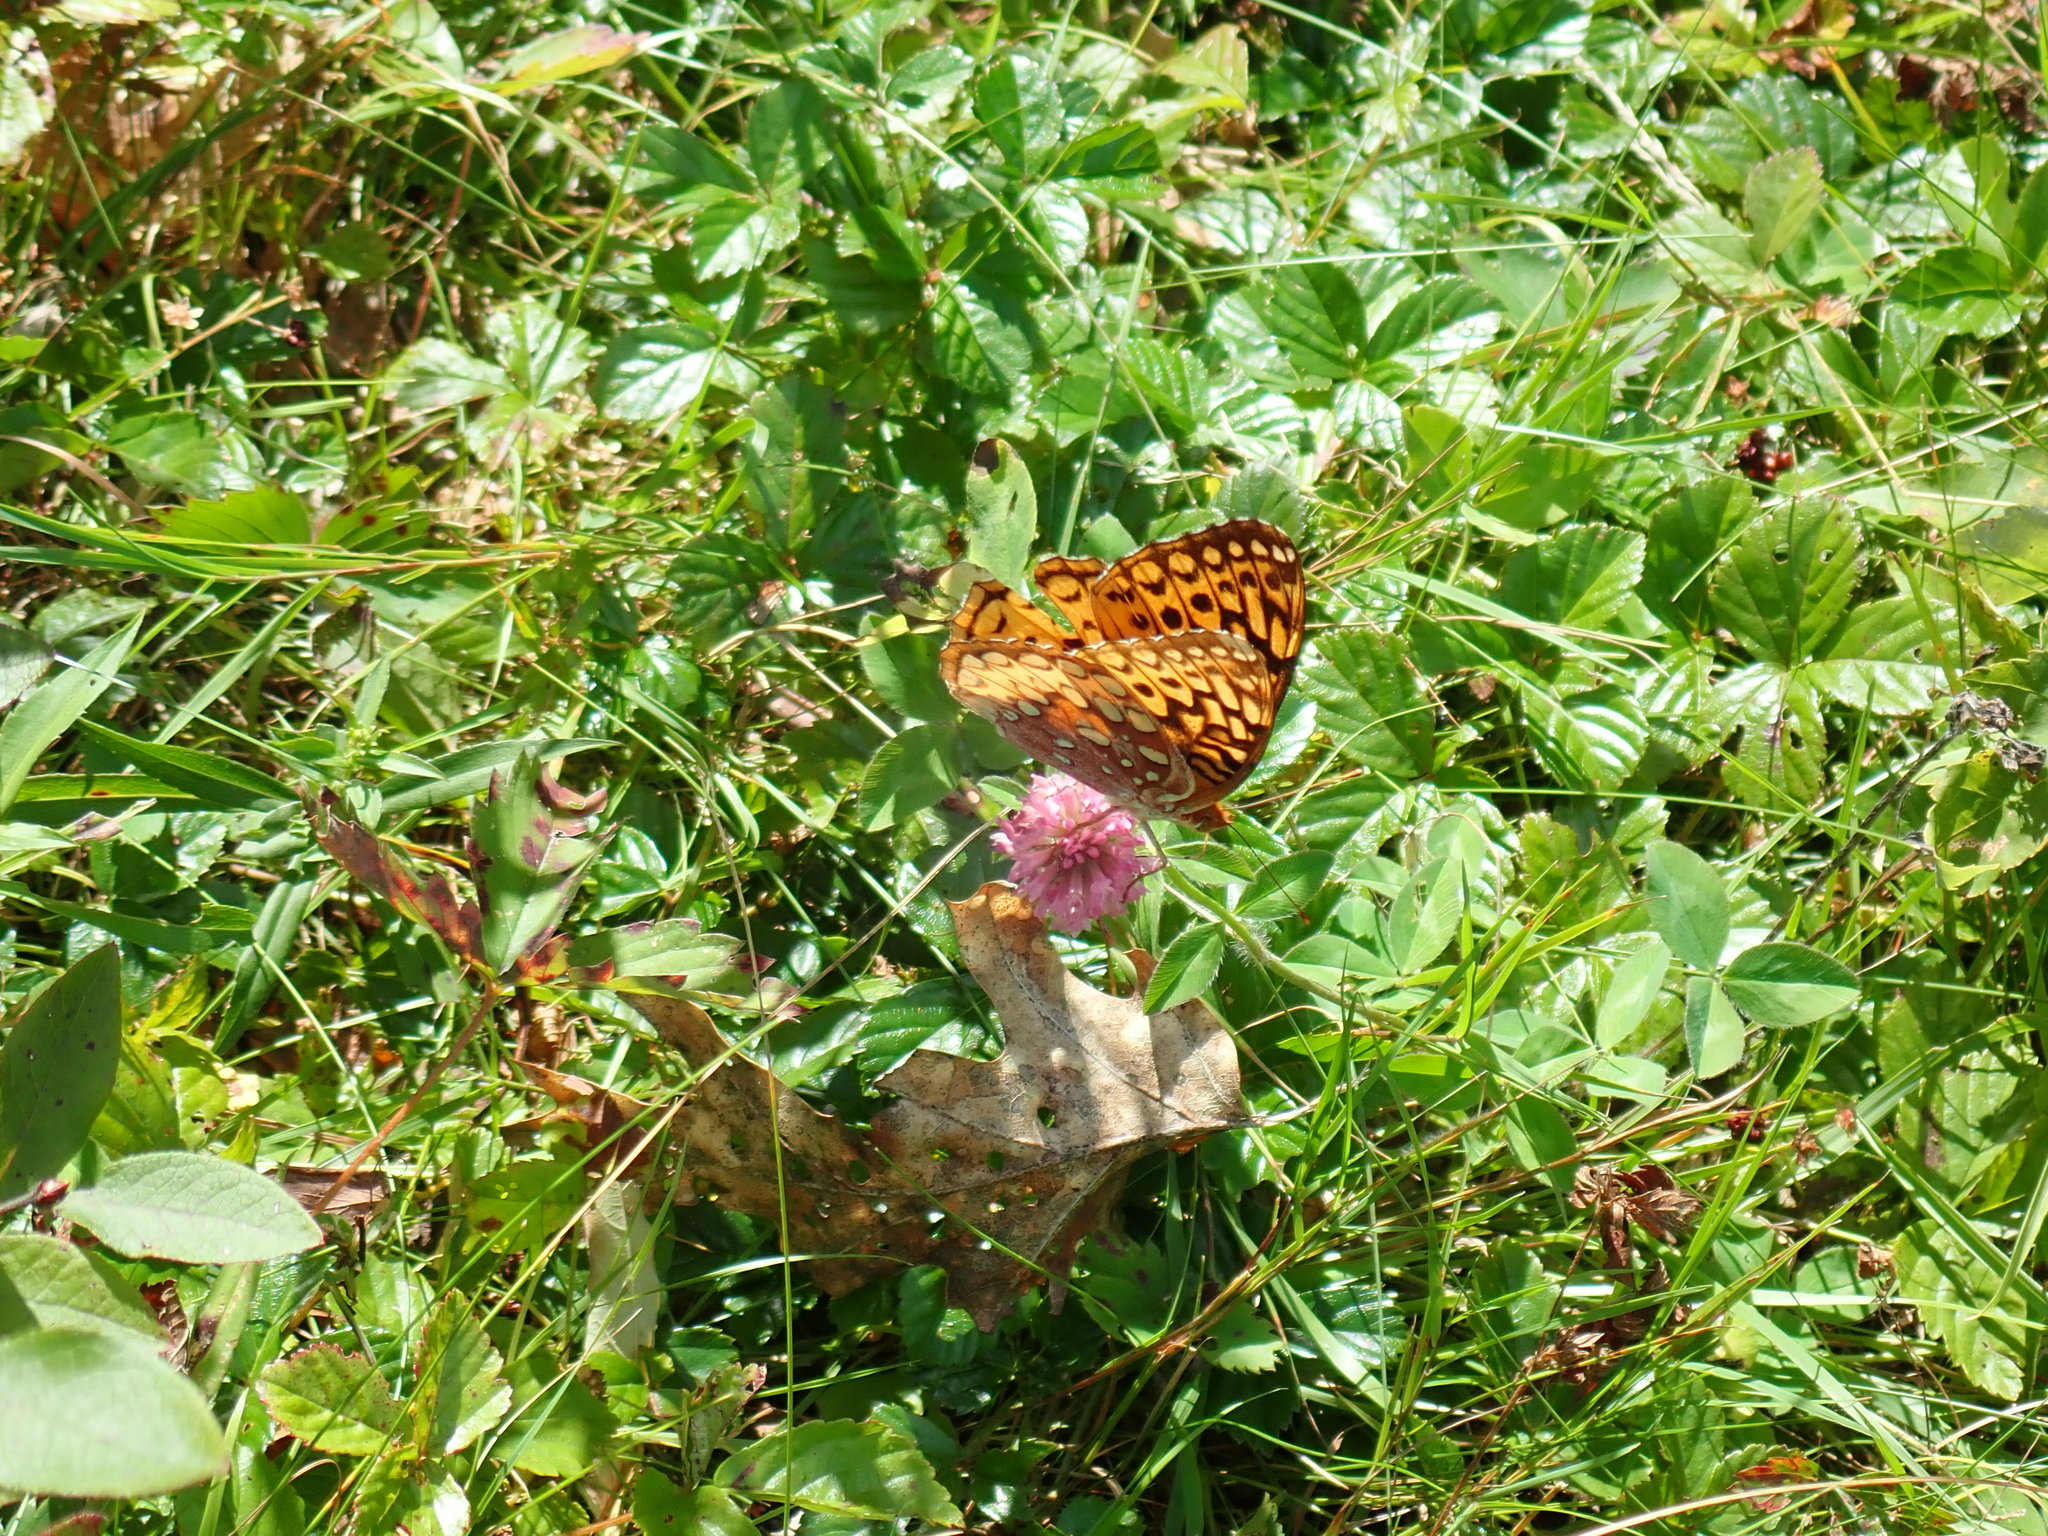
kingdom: Animalia
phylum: Arthropoda
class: Insecta
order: Lepidoptera
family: Nymphalidae
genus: Speyeria
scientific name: Speyeria cybele
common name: Great spangled fritillary
